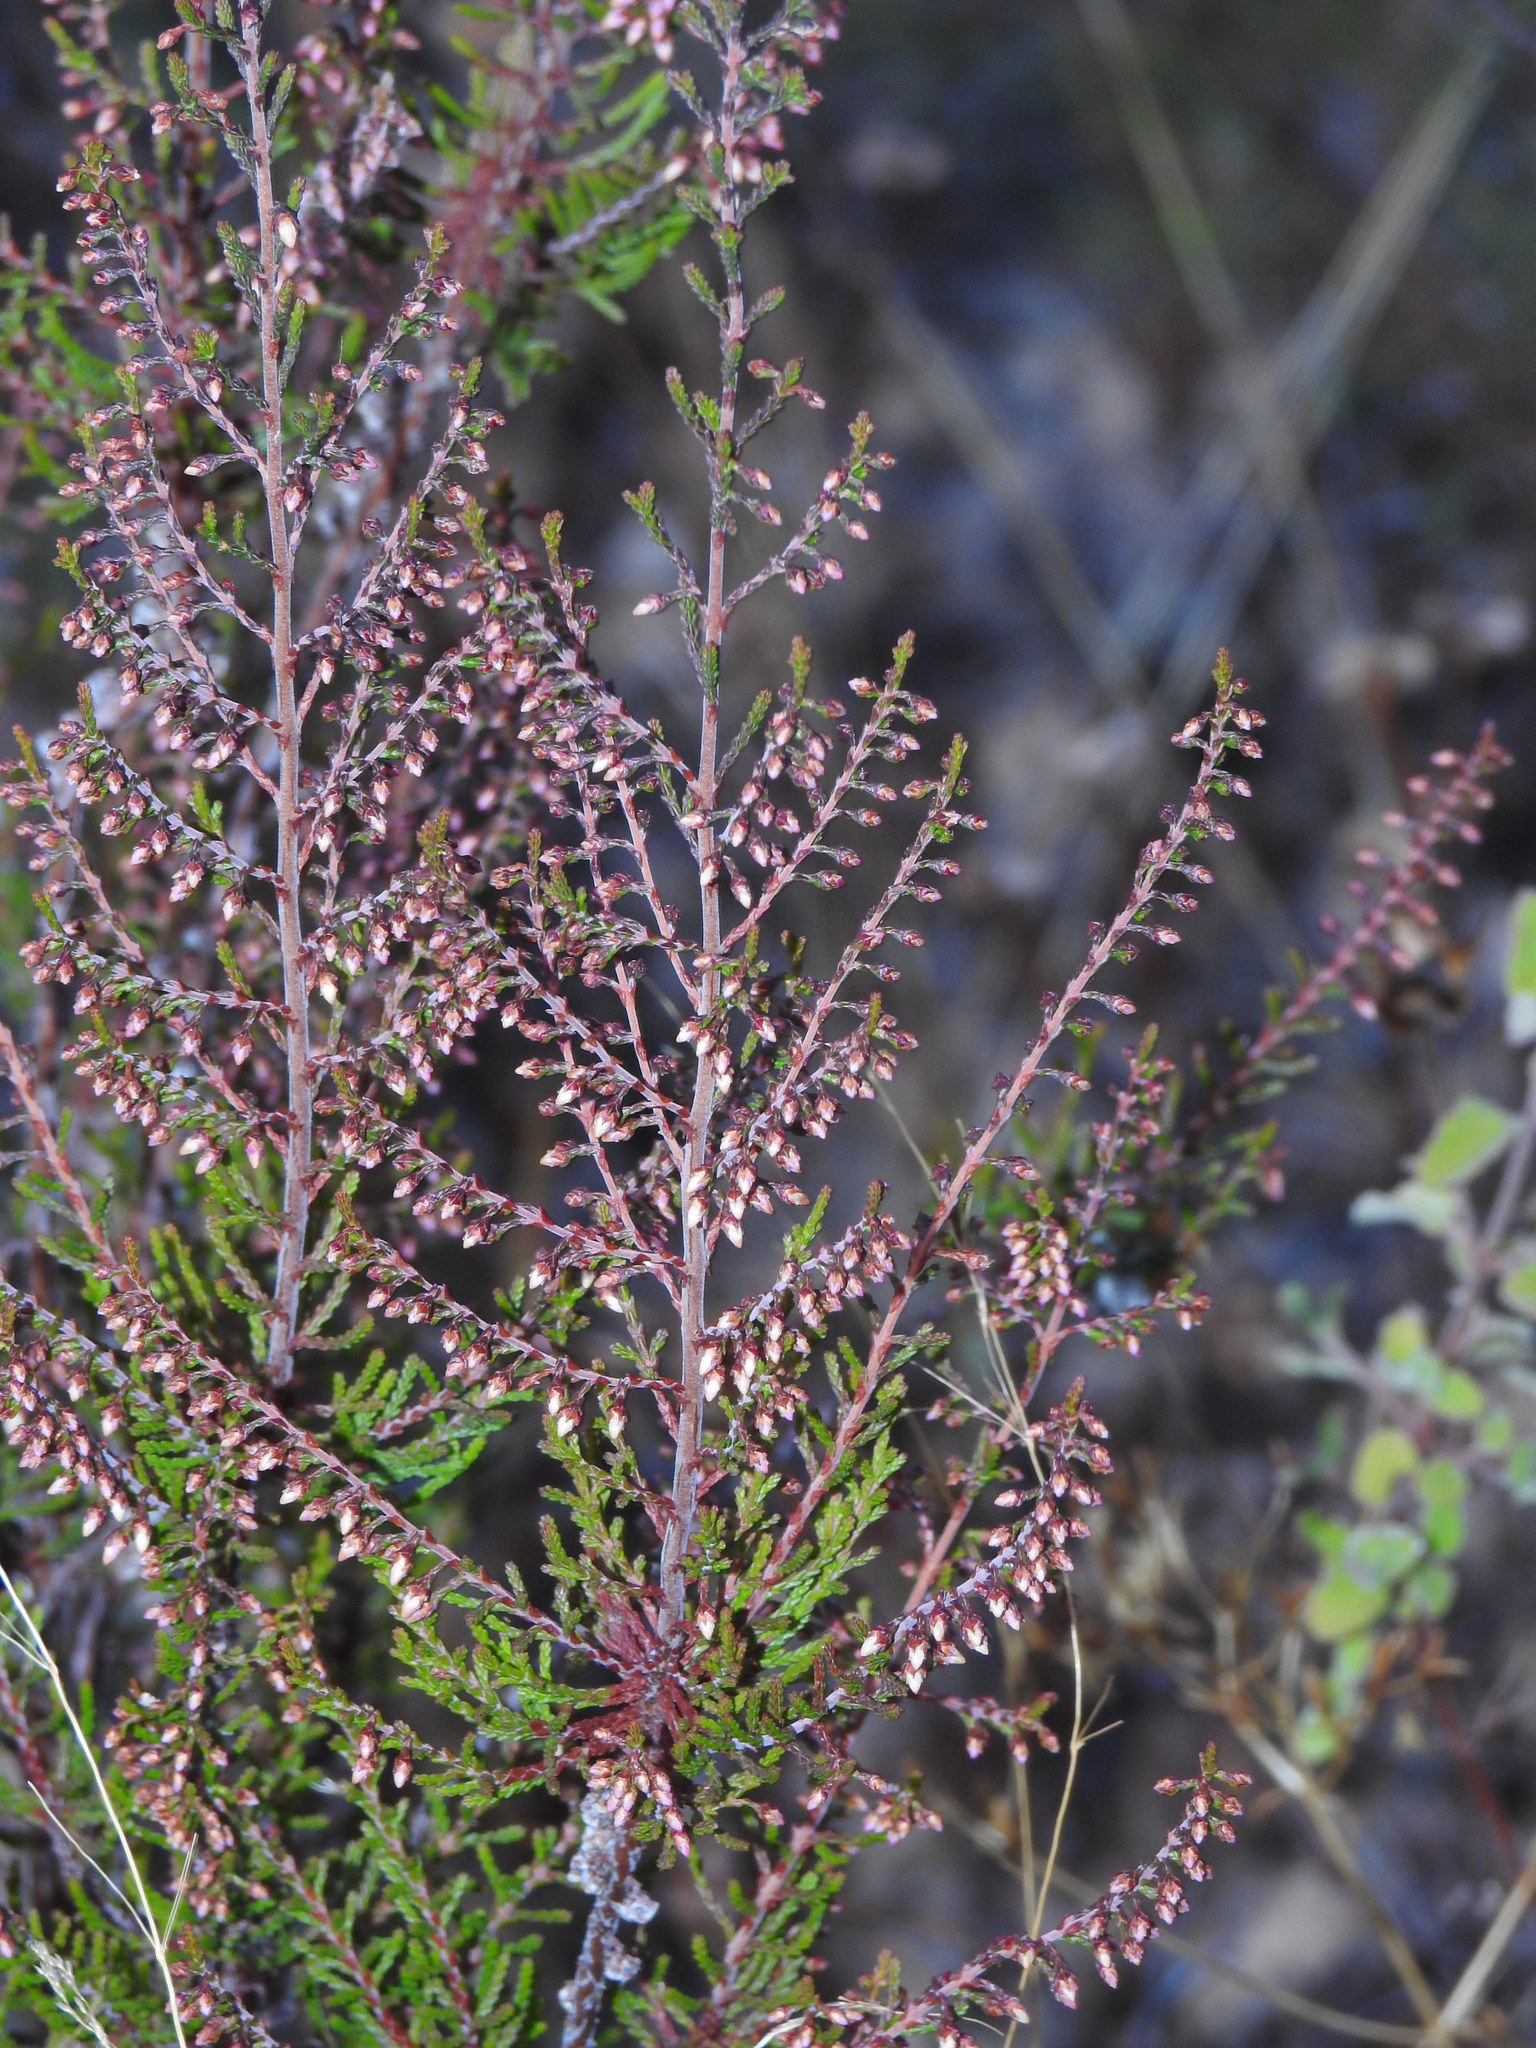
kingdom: Plantae
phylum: Tracheophyta
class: Magnoliopsida
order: Ericales
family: Ericaceae
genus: Calluna
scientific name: Calluna vulgaris
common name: Heather
